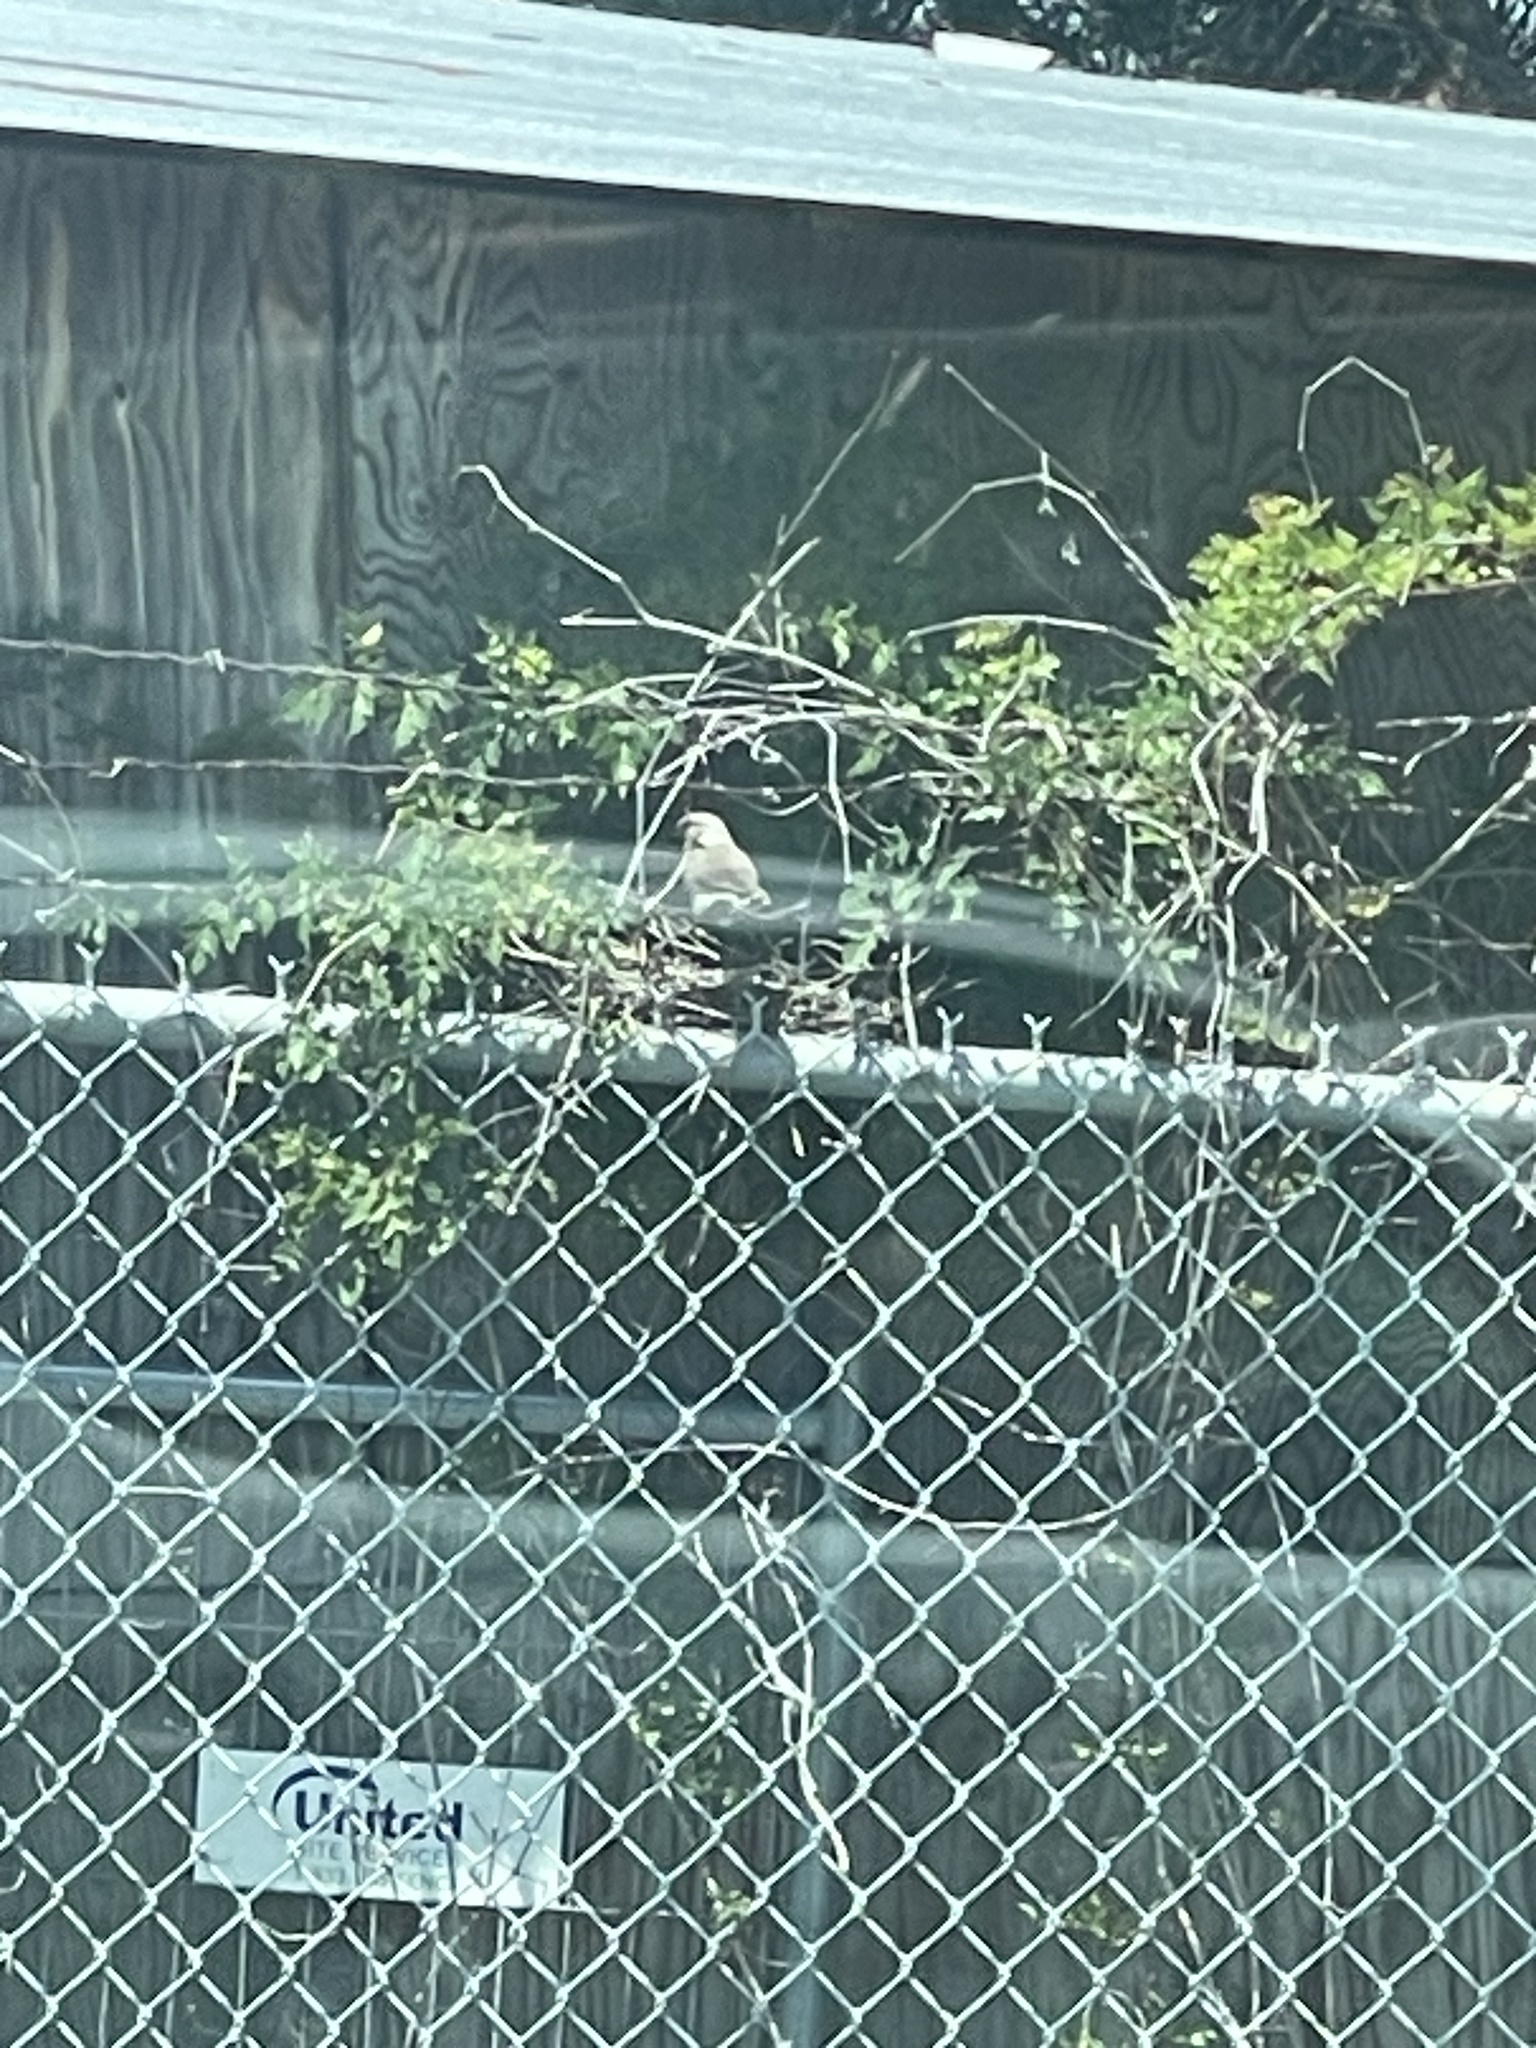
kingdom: Animalia
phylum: Chordata
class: Aves
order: Passeriformes
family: Mimidae
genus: Mimus
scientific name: Mimus polyglottos
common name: Northern mockingbird
